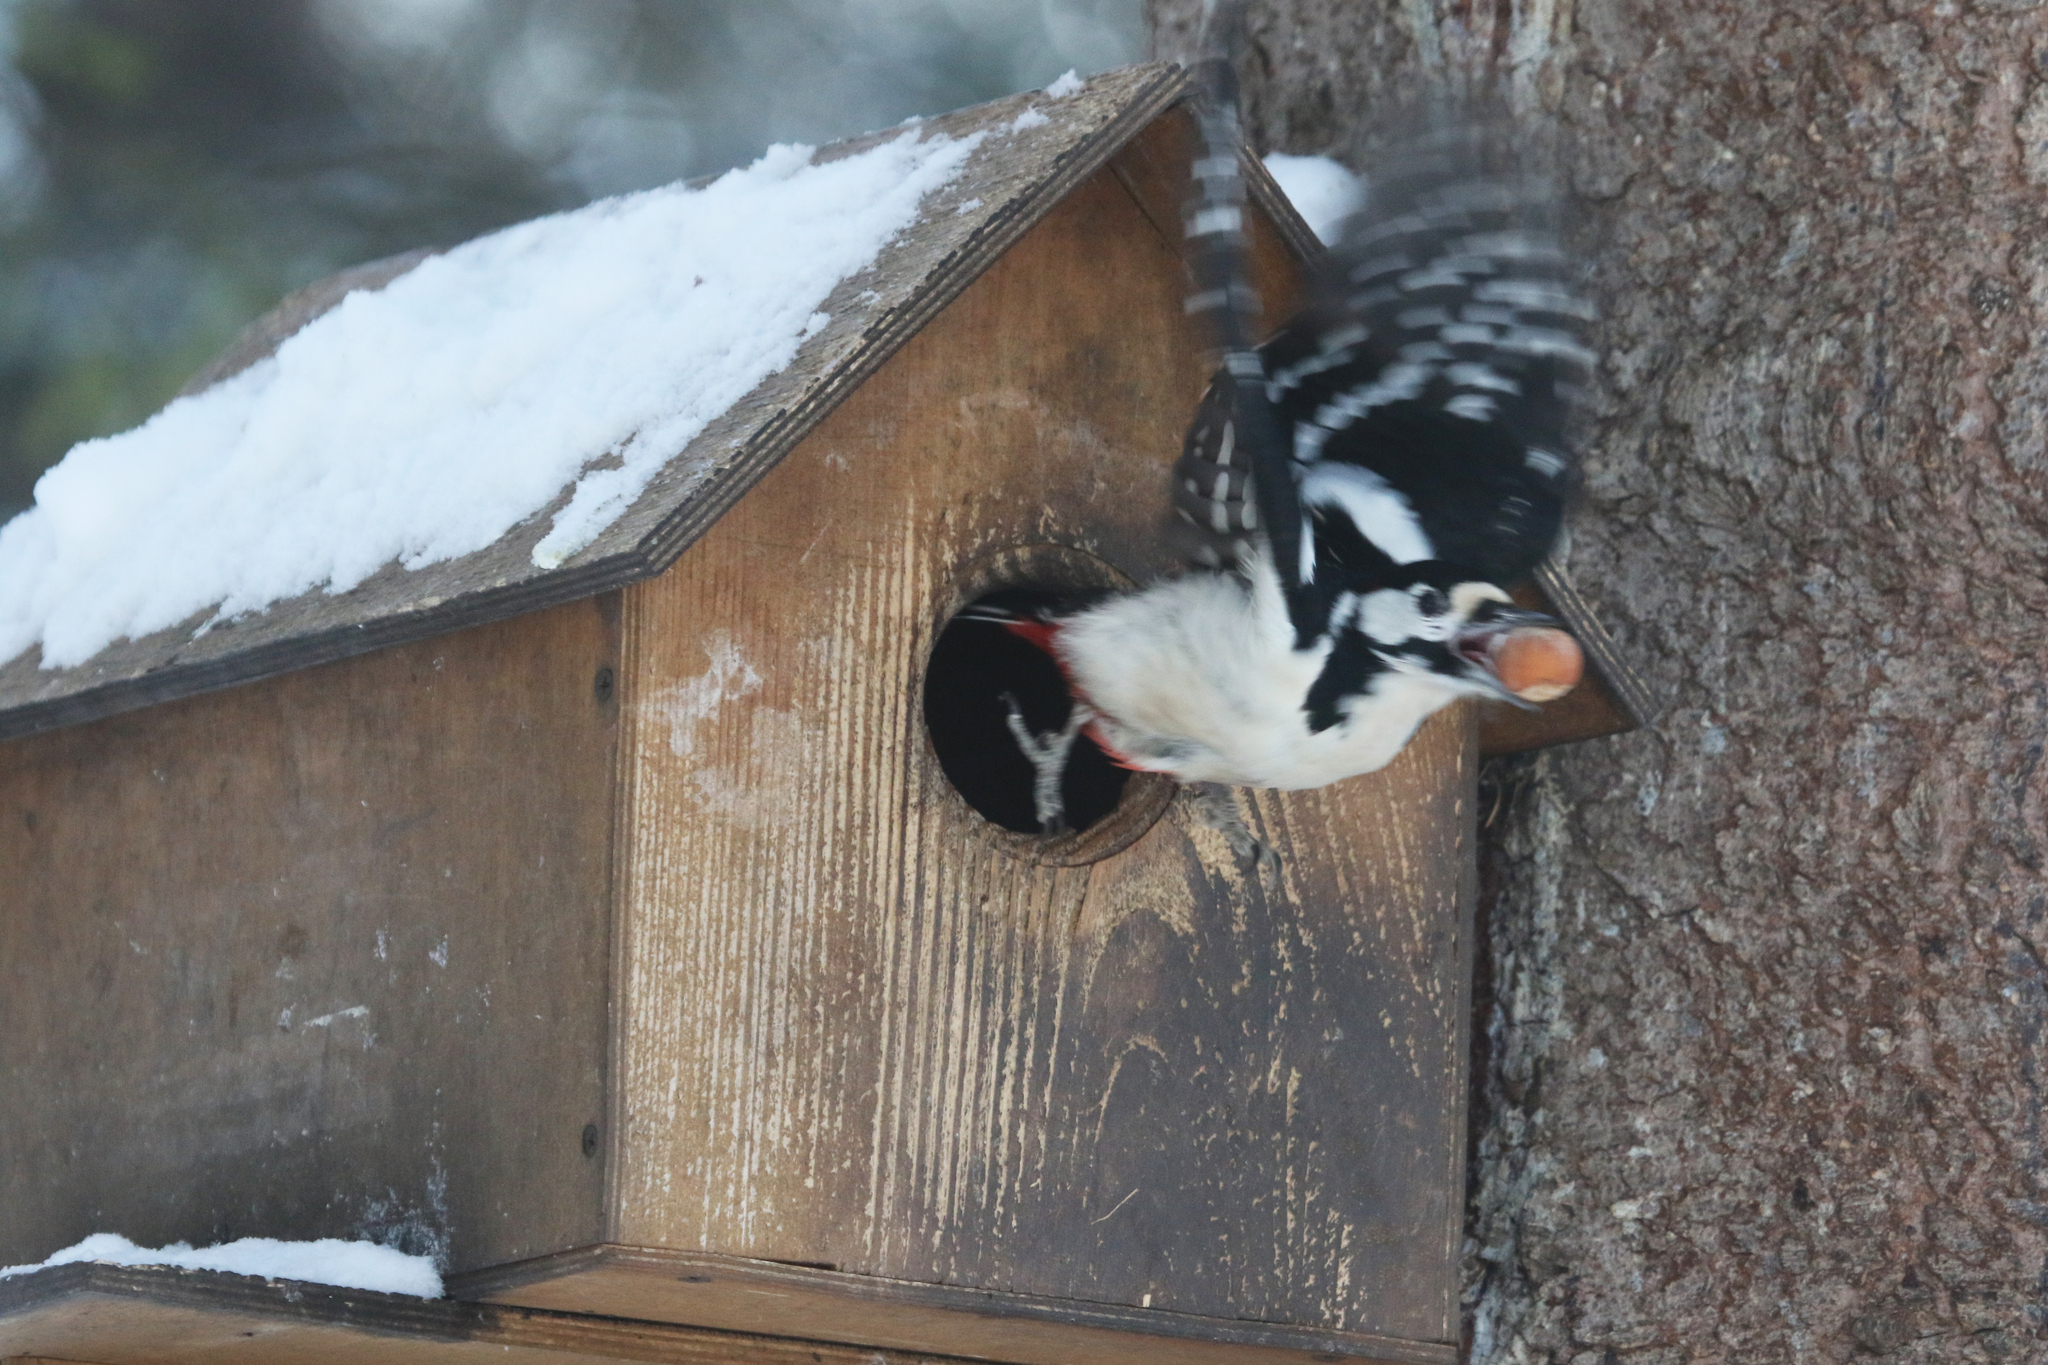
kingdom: Animalia
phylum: Chordata
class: Aves
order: Piciformes
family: Picidae
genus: Dendrocopos
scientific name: Dendrocopos major
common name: Great spotted woodpecker
